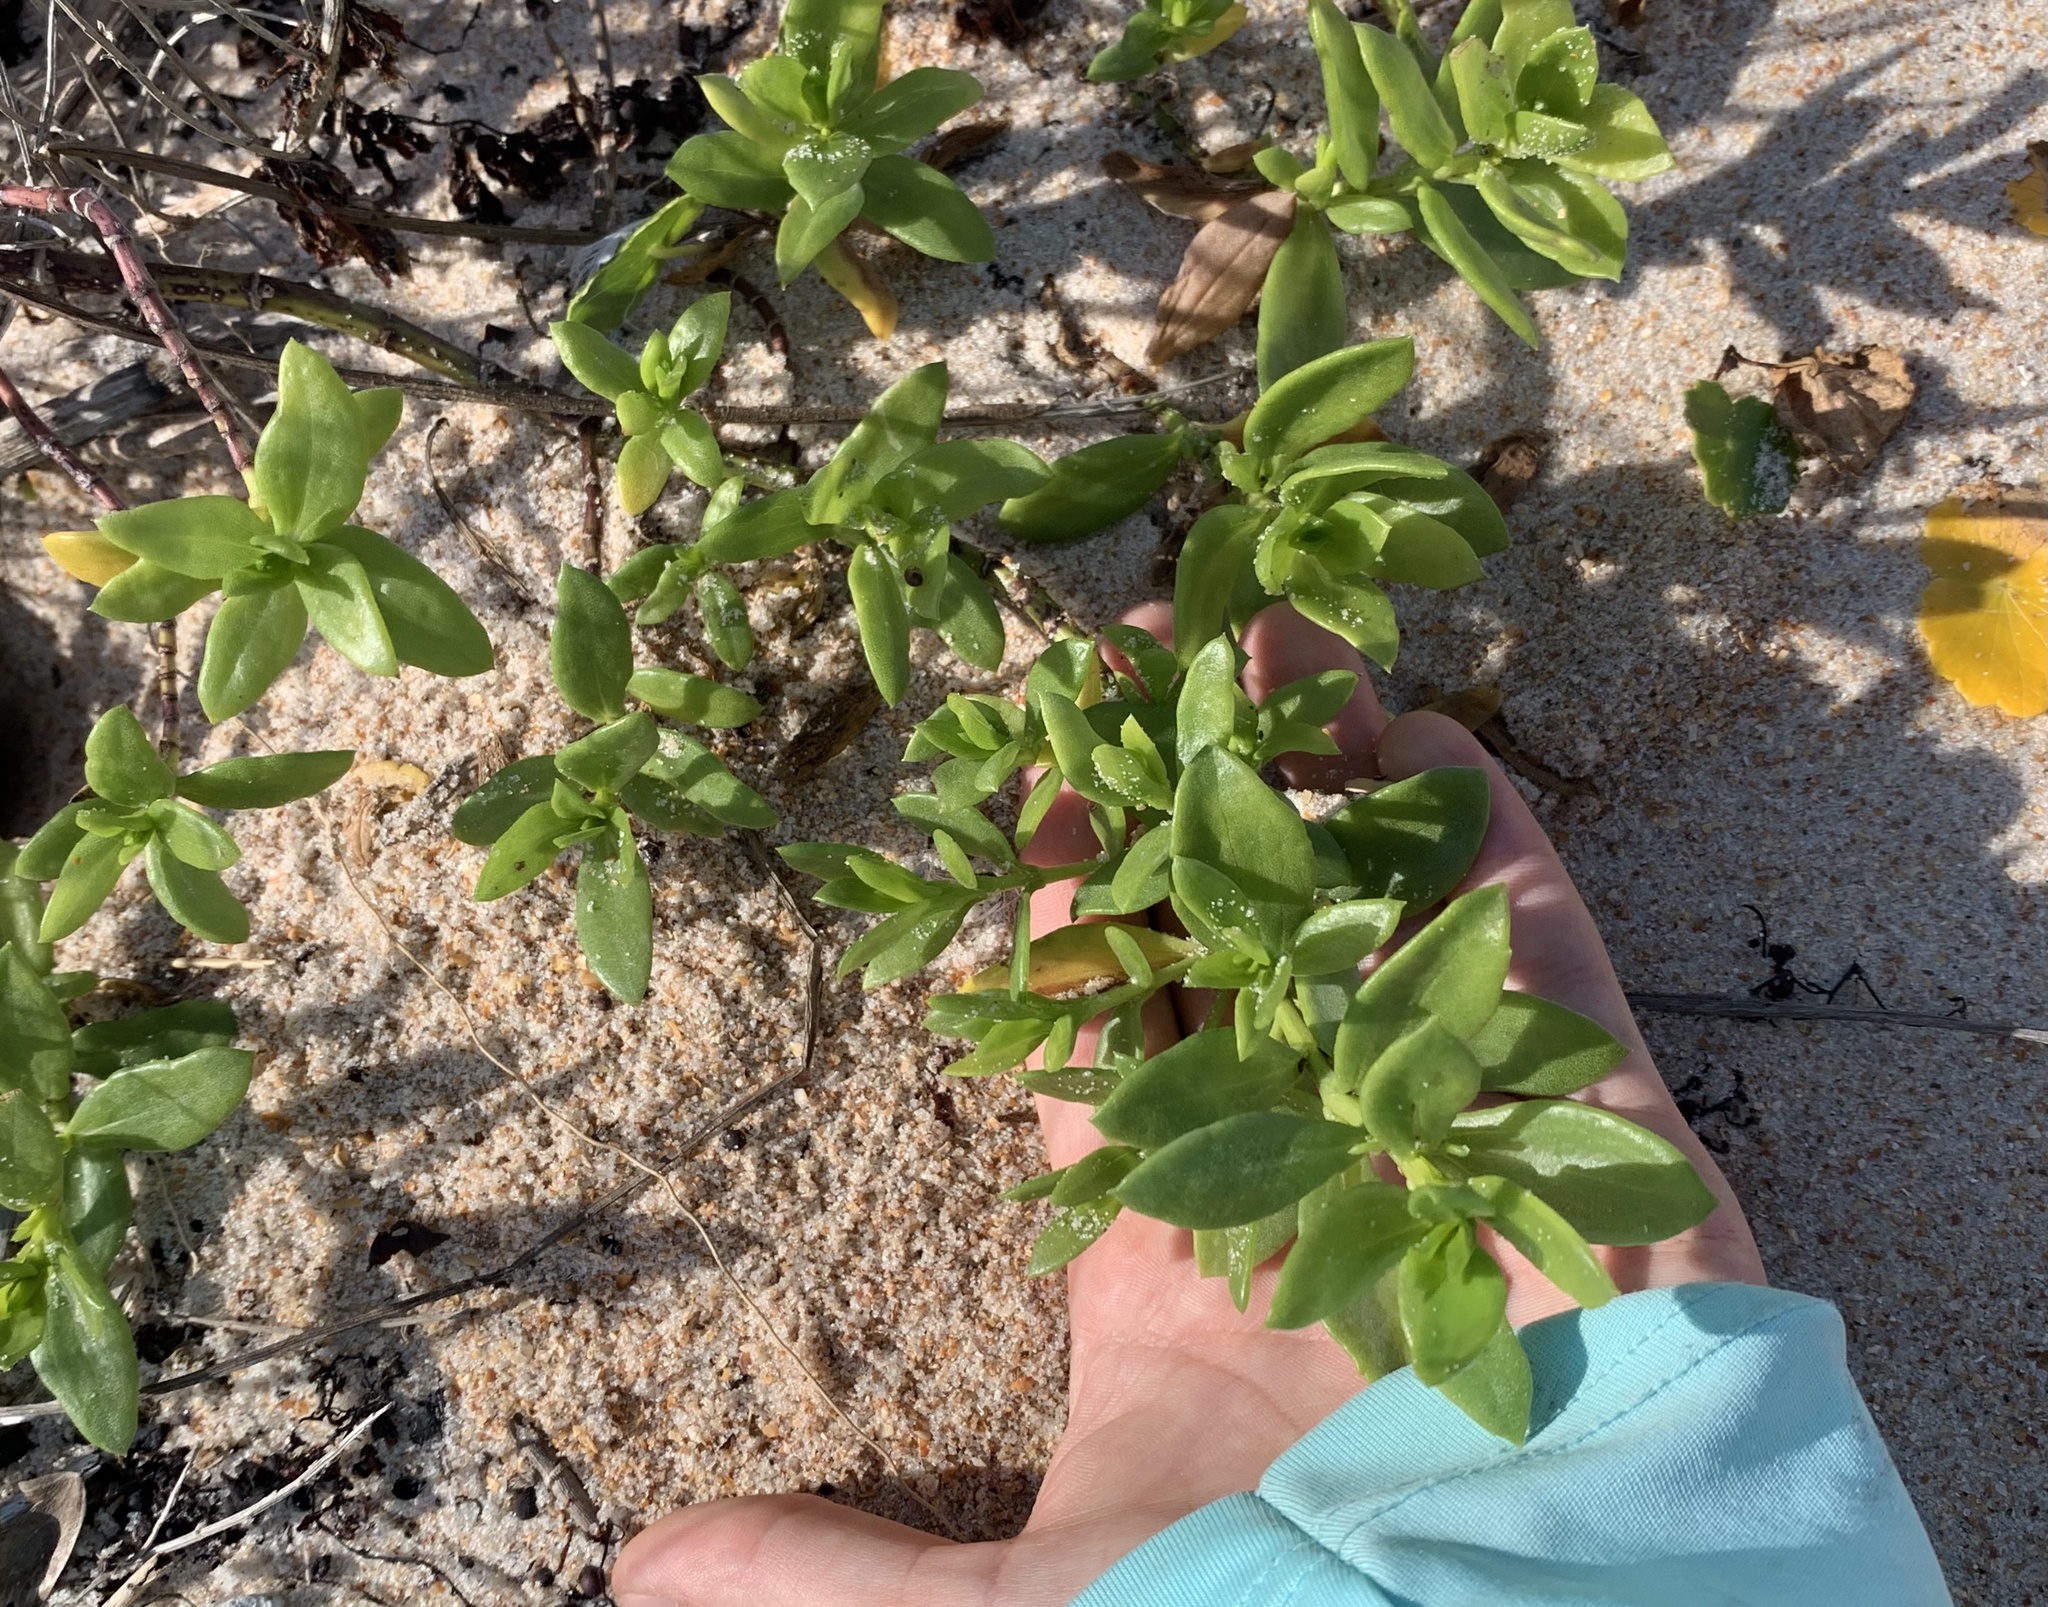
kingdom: Plantae
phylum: Tracheophyta
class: Magnoliopsida
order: Asterales
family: Asteraceae
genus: Iva
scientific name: Iva imbricata
